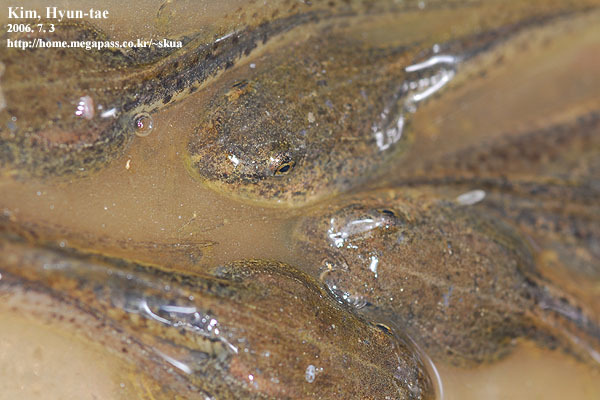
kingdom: Animalia
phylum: Chordata
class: Amphibia
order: Anura
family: Ranidae
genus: Pelophylax
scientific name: Pelophylax nigromaculatus
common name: Black-spotted pond frog
